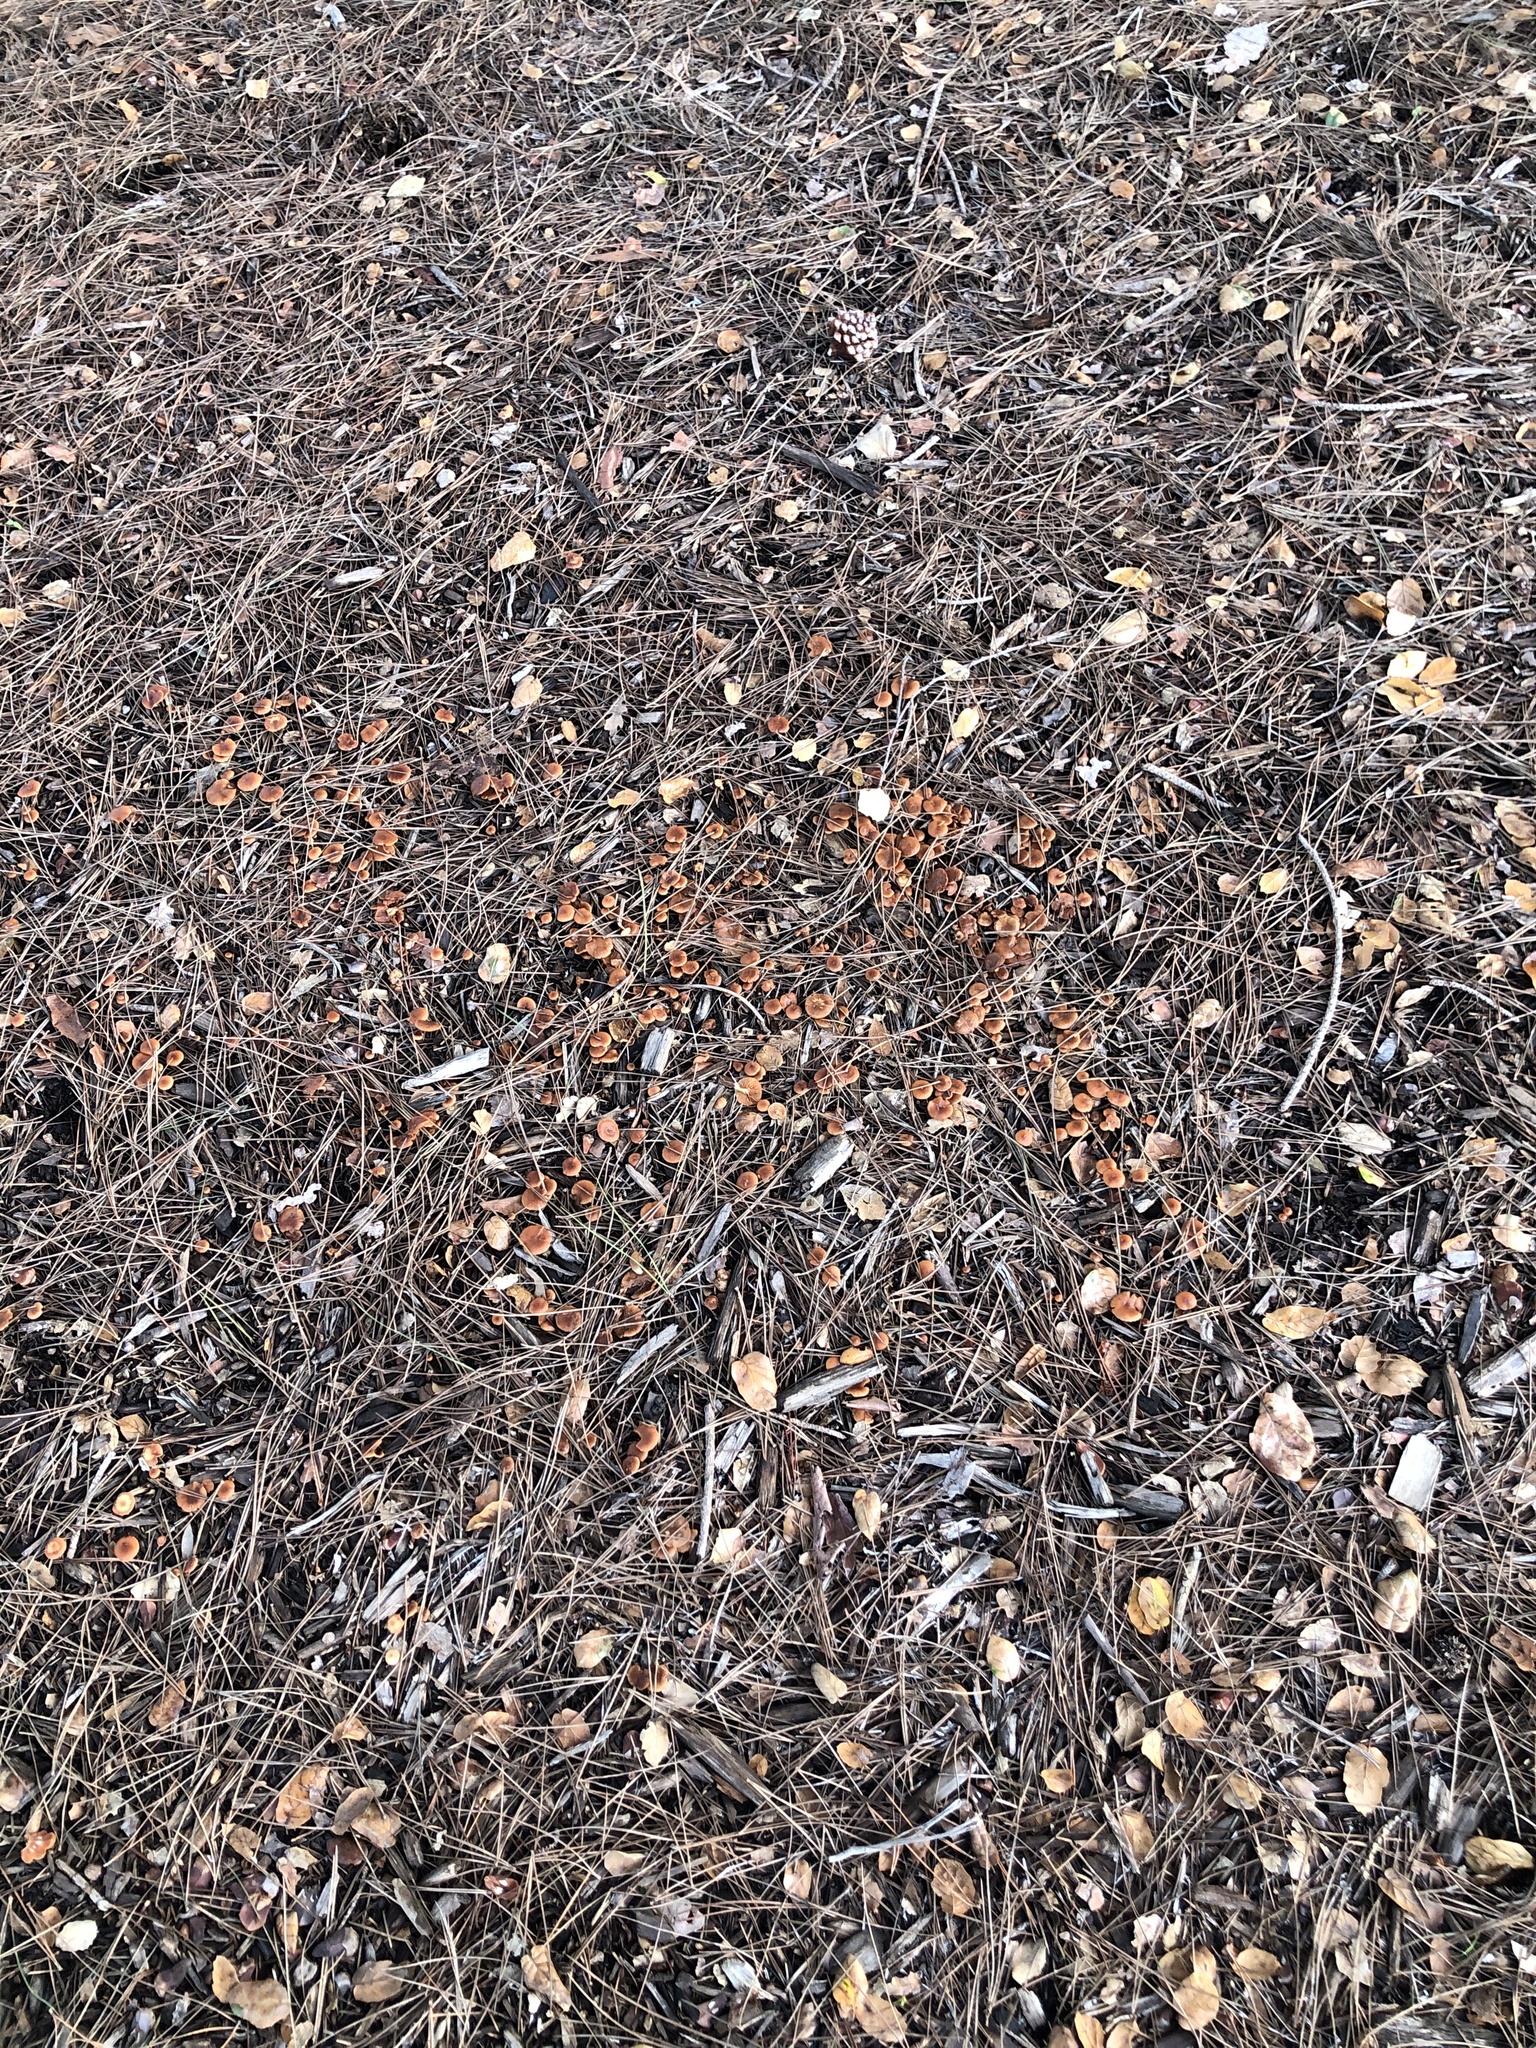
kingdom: Fungi
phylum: Basidiomycota
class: Agaricomycetes
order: Agaricales
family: Tubariaceae
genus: Tubaria
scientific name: Tubaria furfuracea
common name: Scurfy twiglet
